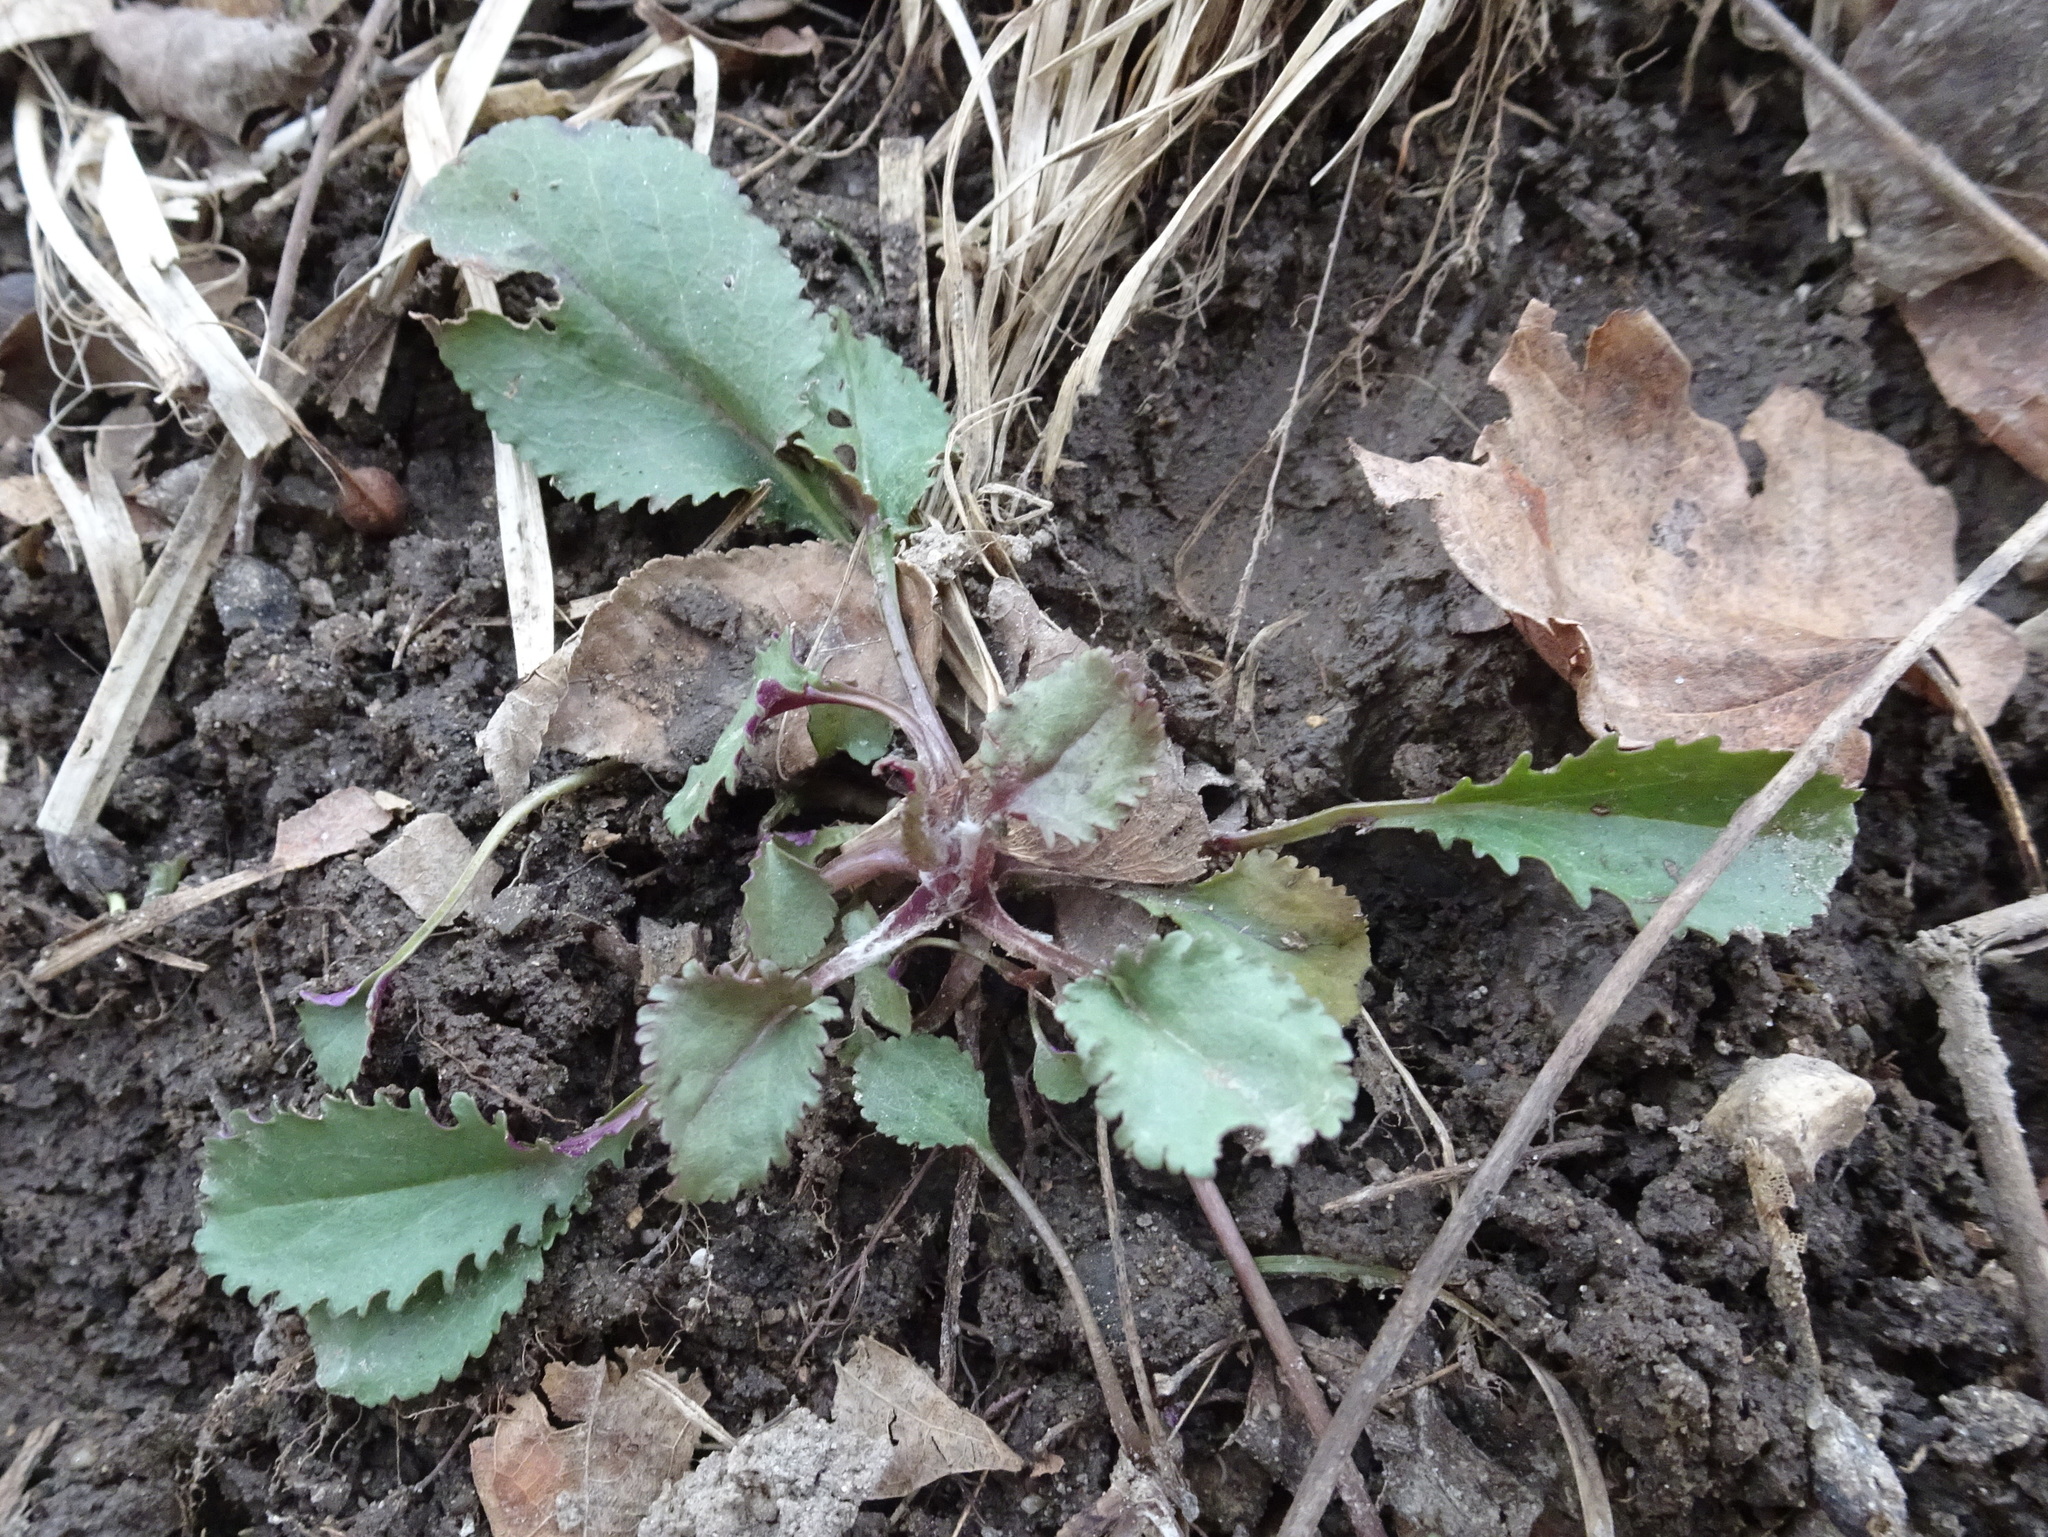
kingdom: Plantae
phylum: Tracheophyta
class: Magnoliopsida
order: Asterales
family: Asteraceae
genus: Packera
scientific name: Packera obovata
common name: Round-leaf ragwort
